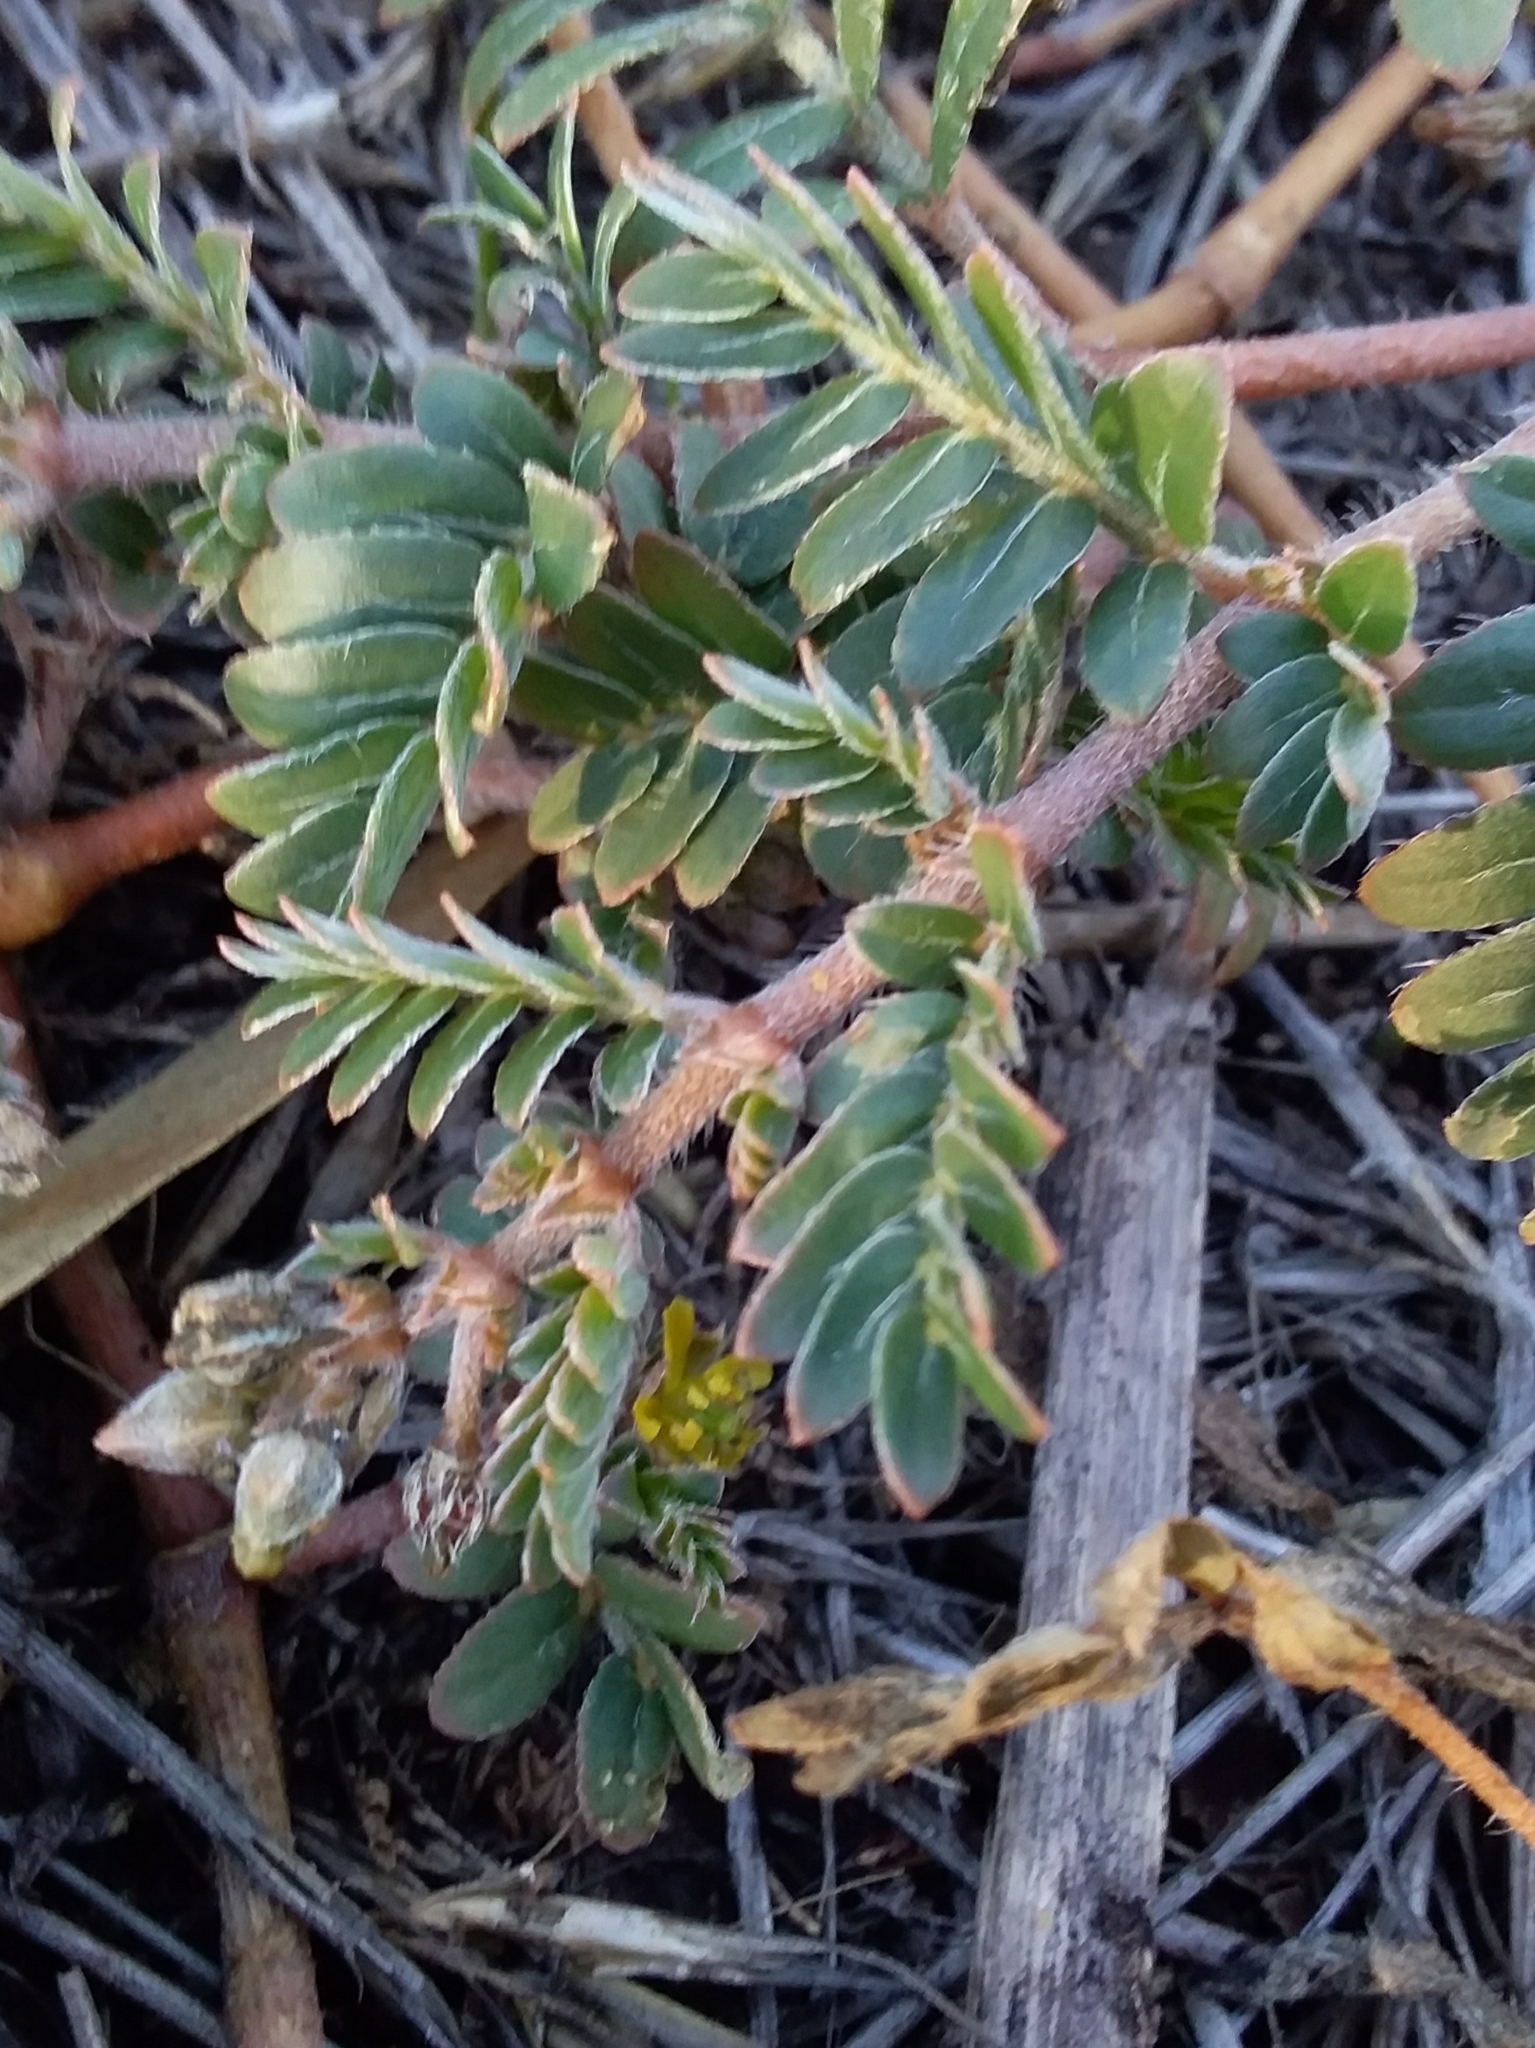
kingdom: Plantae
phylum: Tracheophyta
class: Magnoliopsida
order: Zygophyllales
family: Zygophyllaceae
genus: Tribulus
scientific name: Tribulus terrestris
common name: Puncturevine
